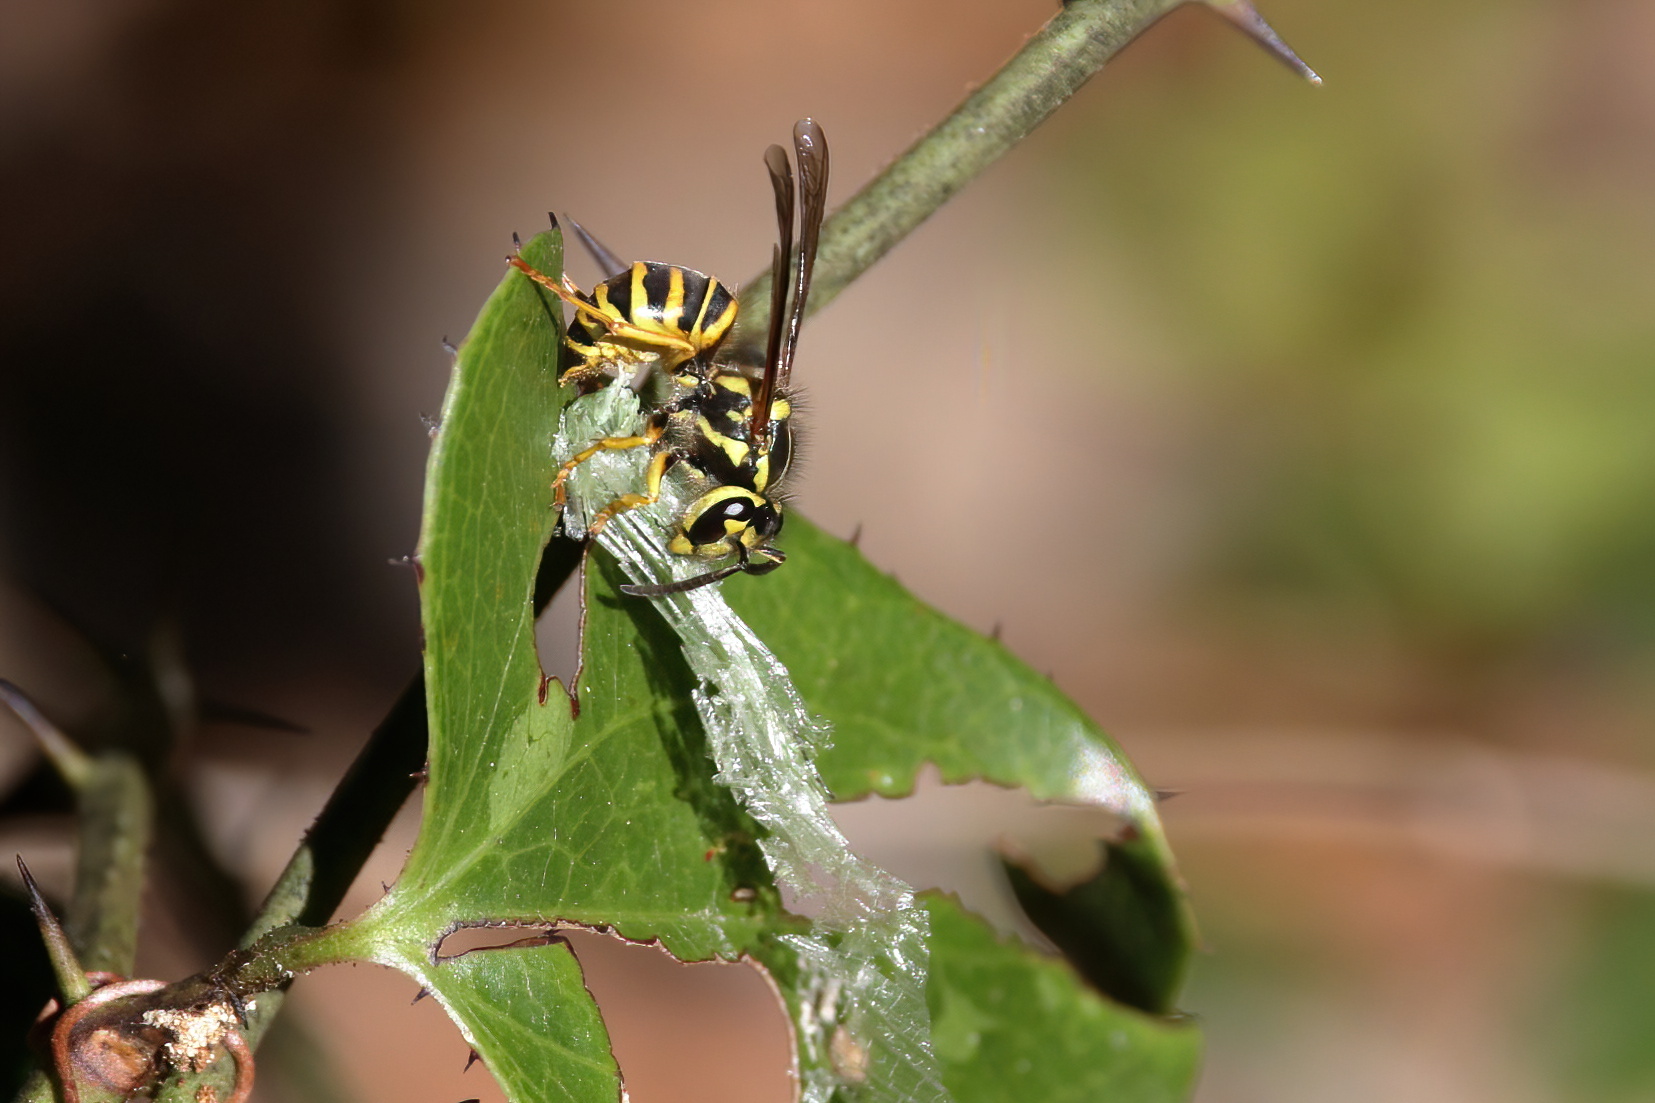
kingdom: Animalia
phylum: Arthropoda
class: Insecta
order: Hymenoptera
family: Vespidae
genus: Vespula
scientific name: Vespula squamosa
